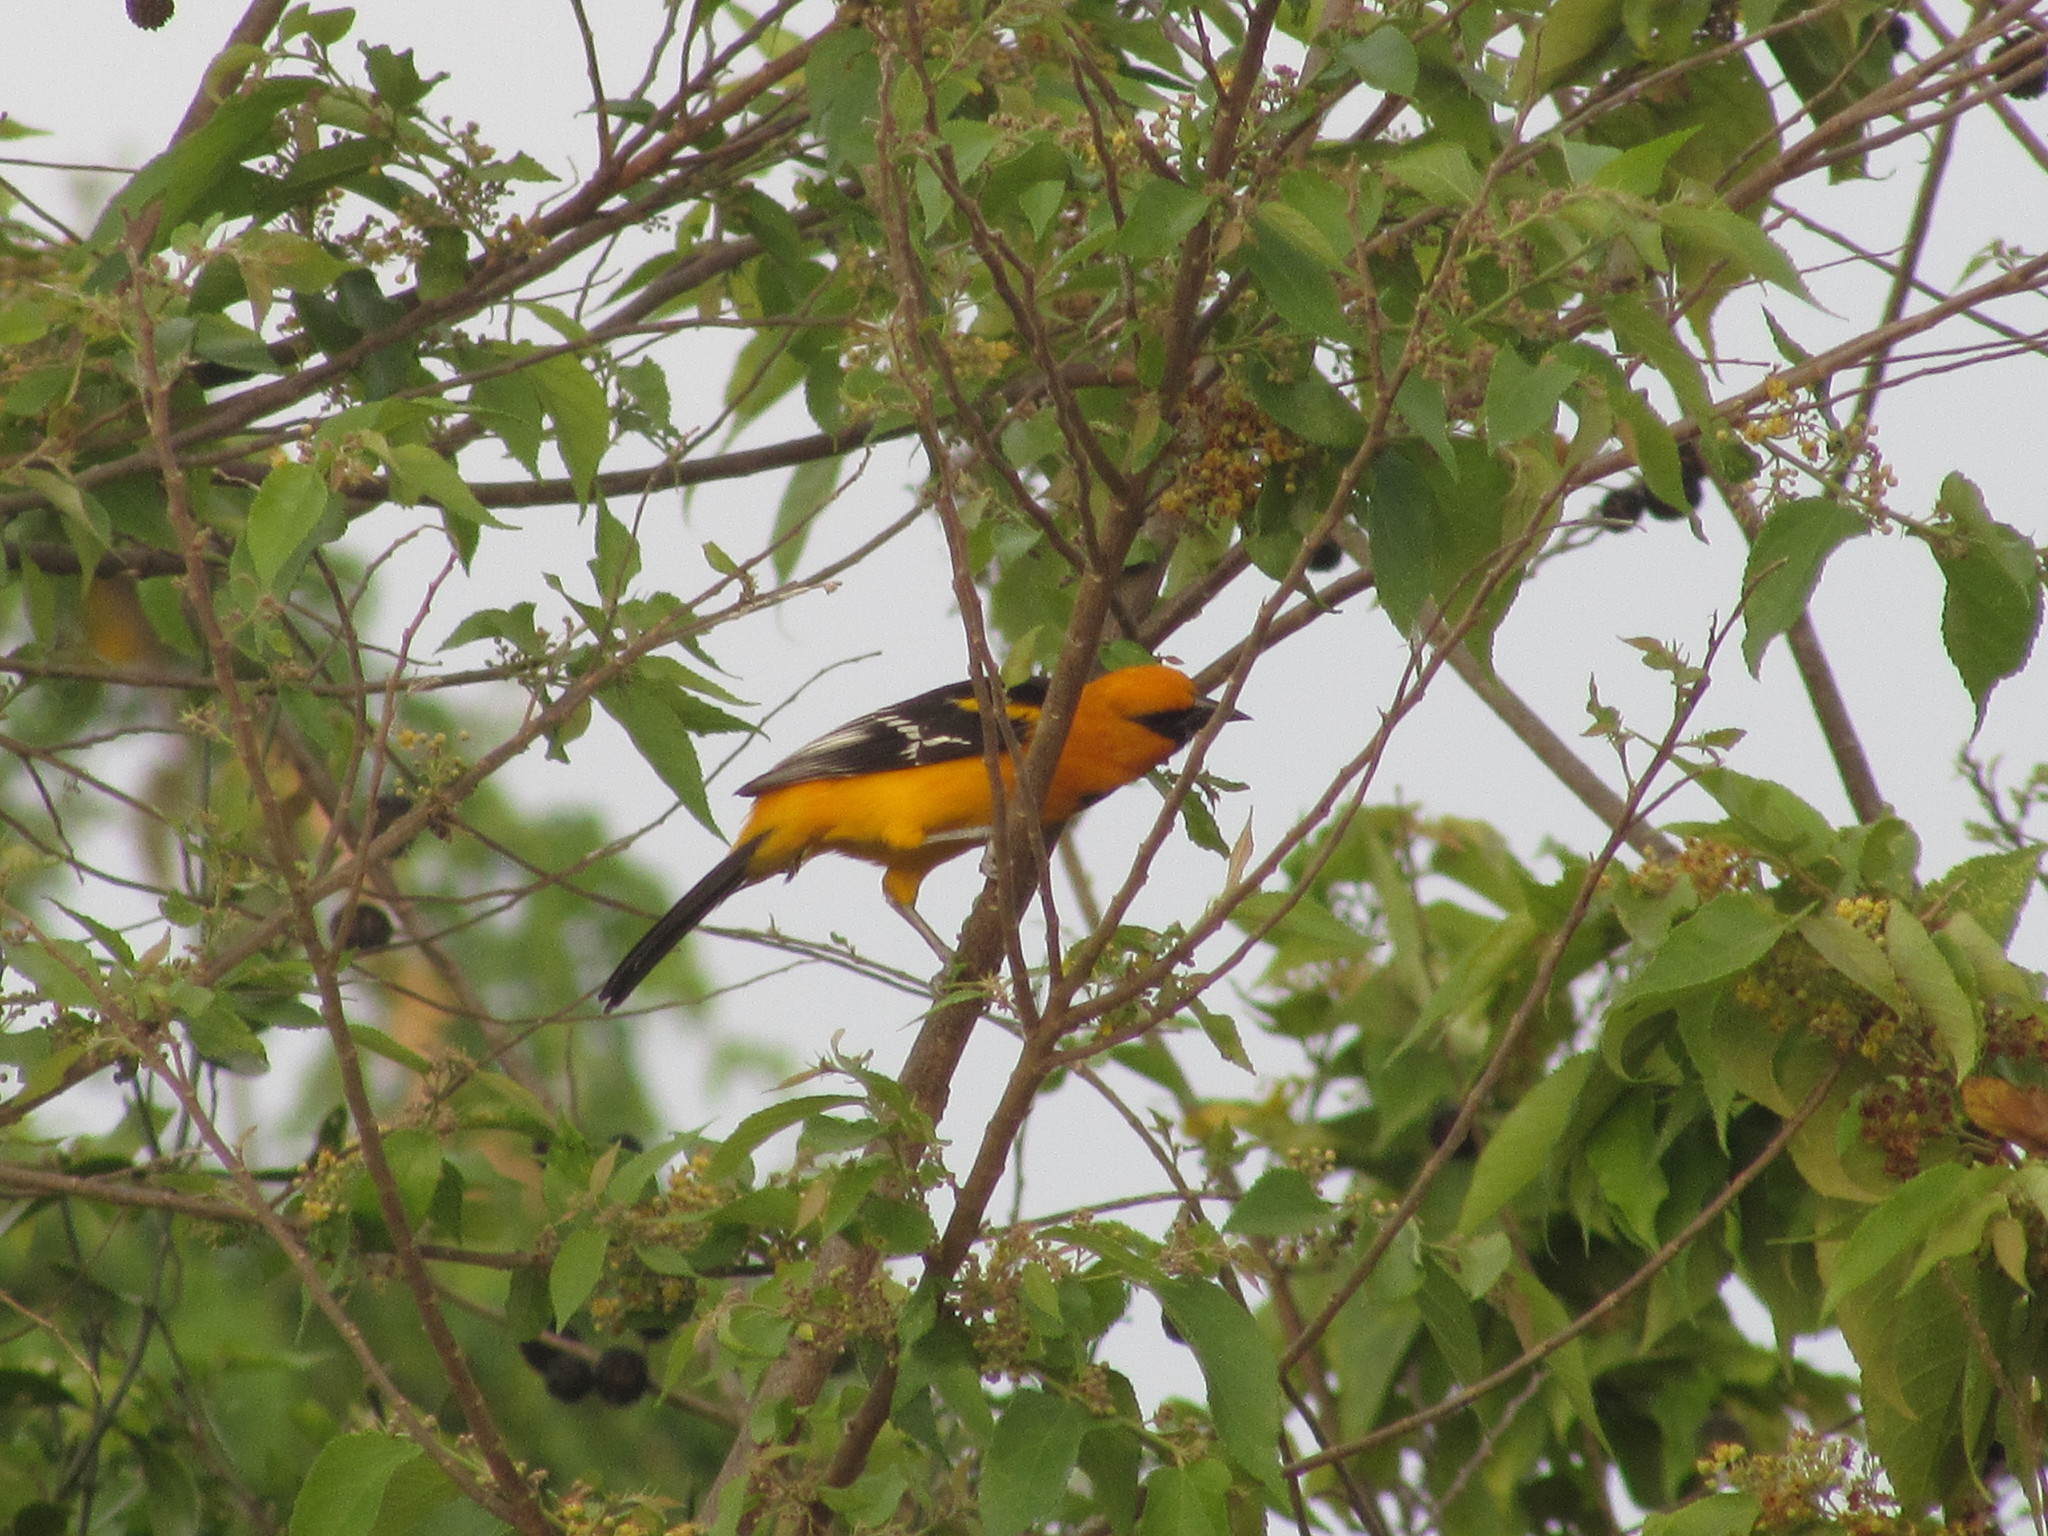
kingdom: Animalia
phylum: Chordata
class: Aves
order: Passeriformes
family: Icteridae
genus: Icterus
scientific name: Icterus gularis
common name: Altamira oriole
